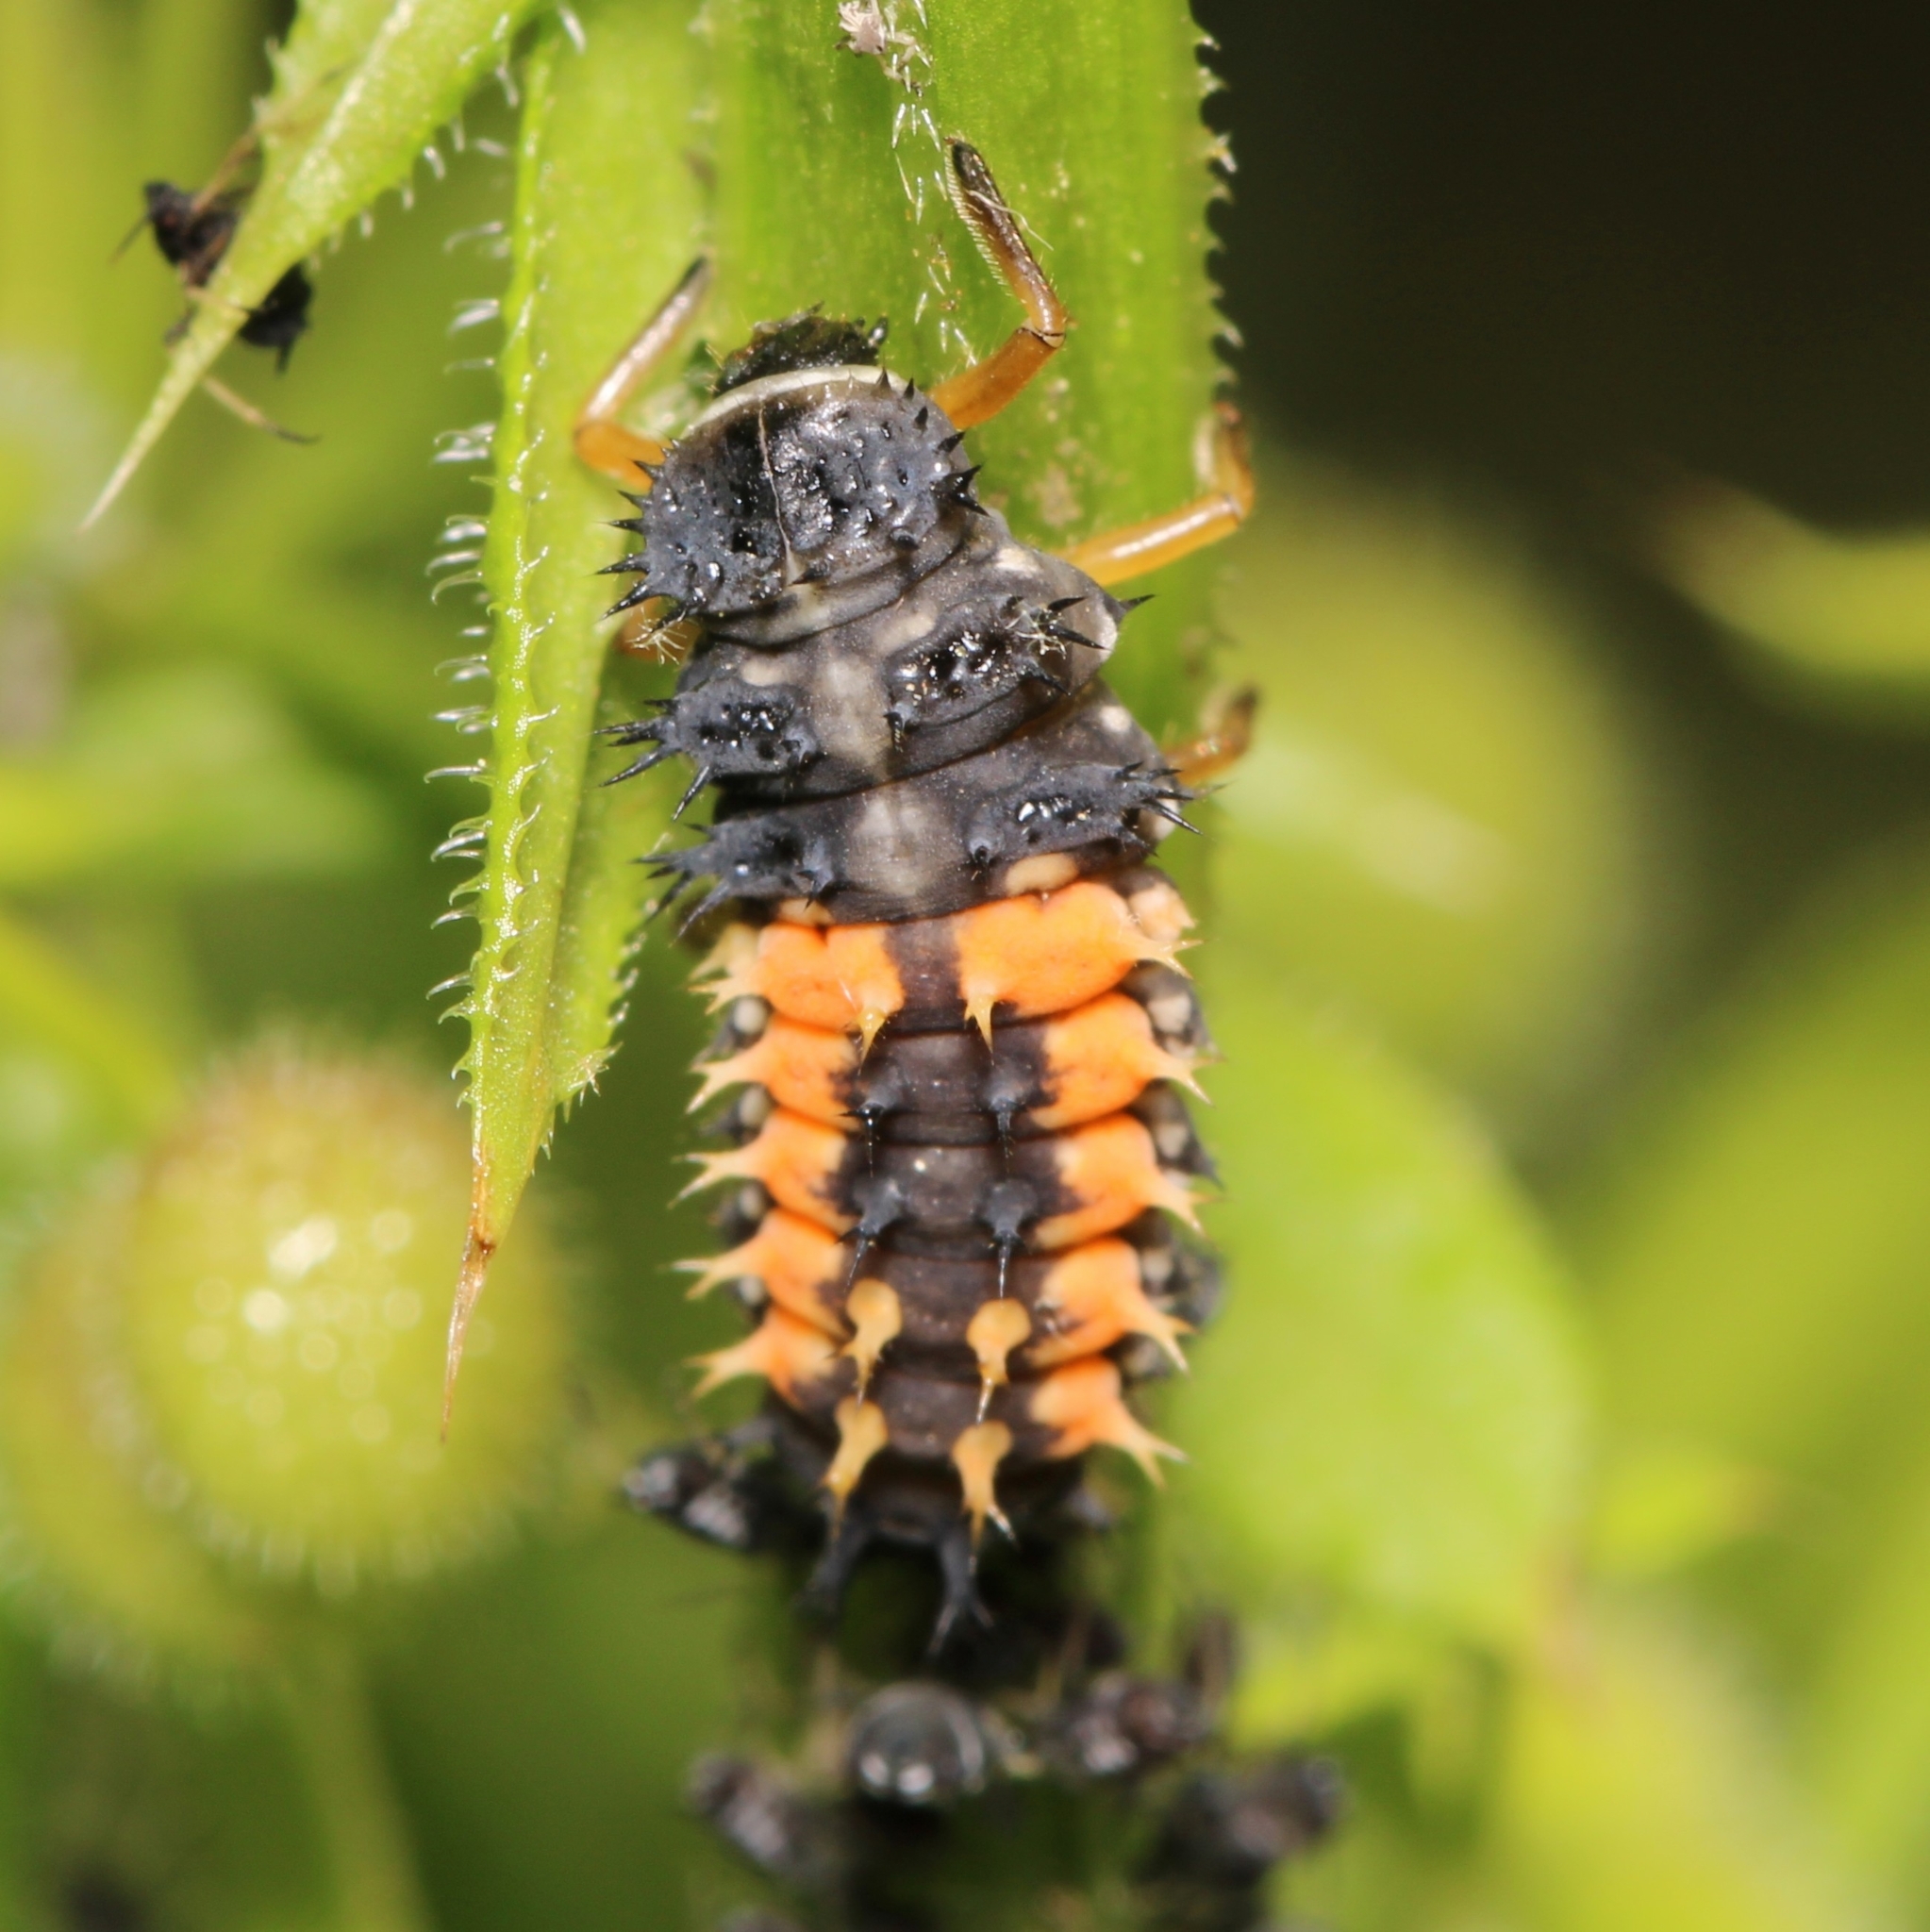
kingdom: Animalia
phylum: Arthropoda
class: Insecta
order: Coleoptera
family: Coccinellidae
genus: Harmonia
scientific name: Harmonia axyridis
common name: Harlequin ladybird
